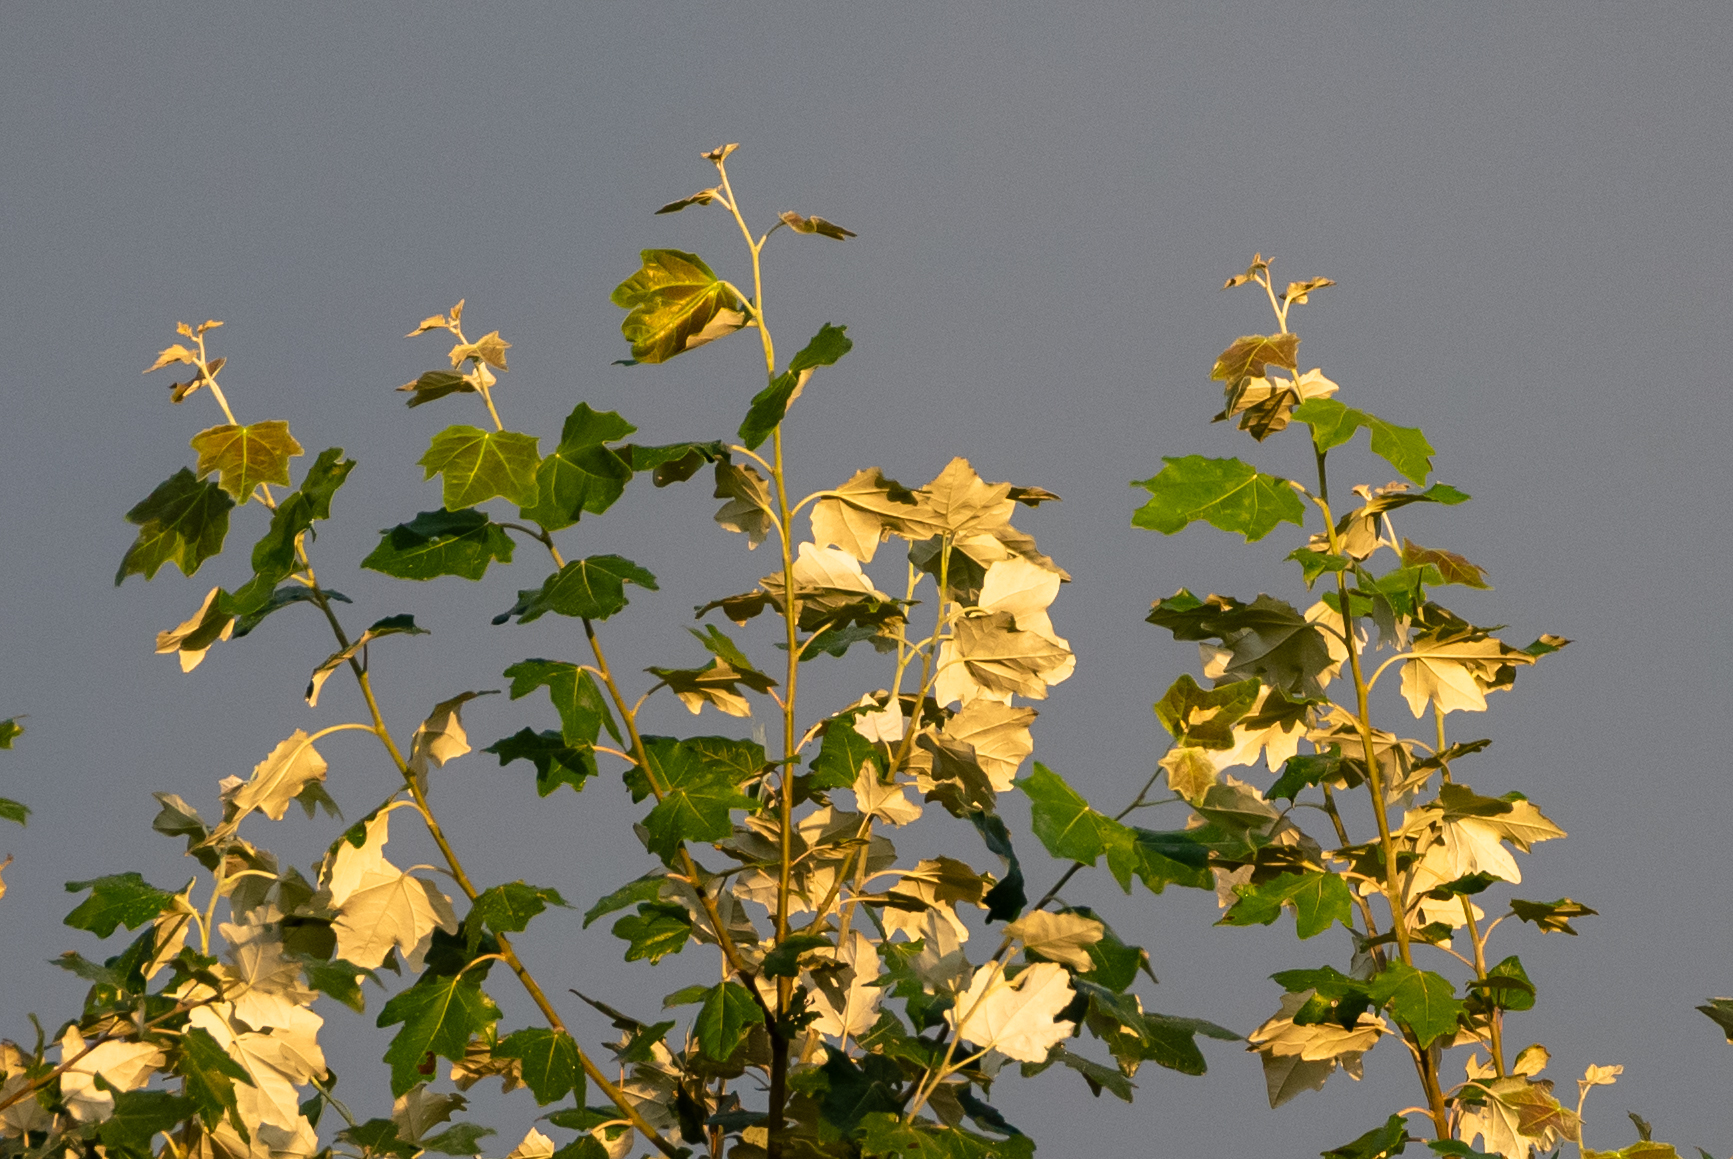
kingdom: Plantae
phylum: Tracheophyta
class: Magnoliopsida
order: Malpighiales
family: Salicaceae
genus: Populus
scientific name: Populus alba
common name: White poplar
